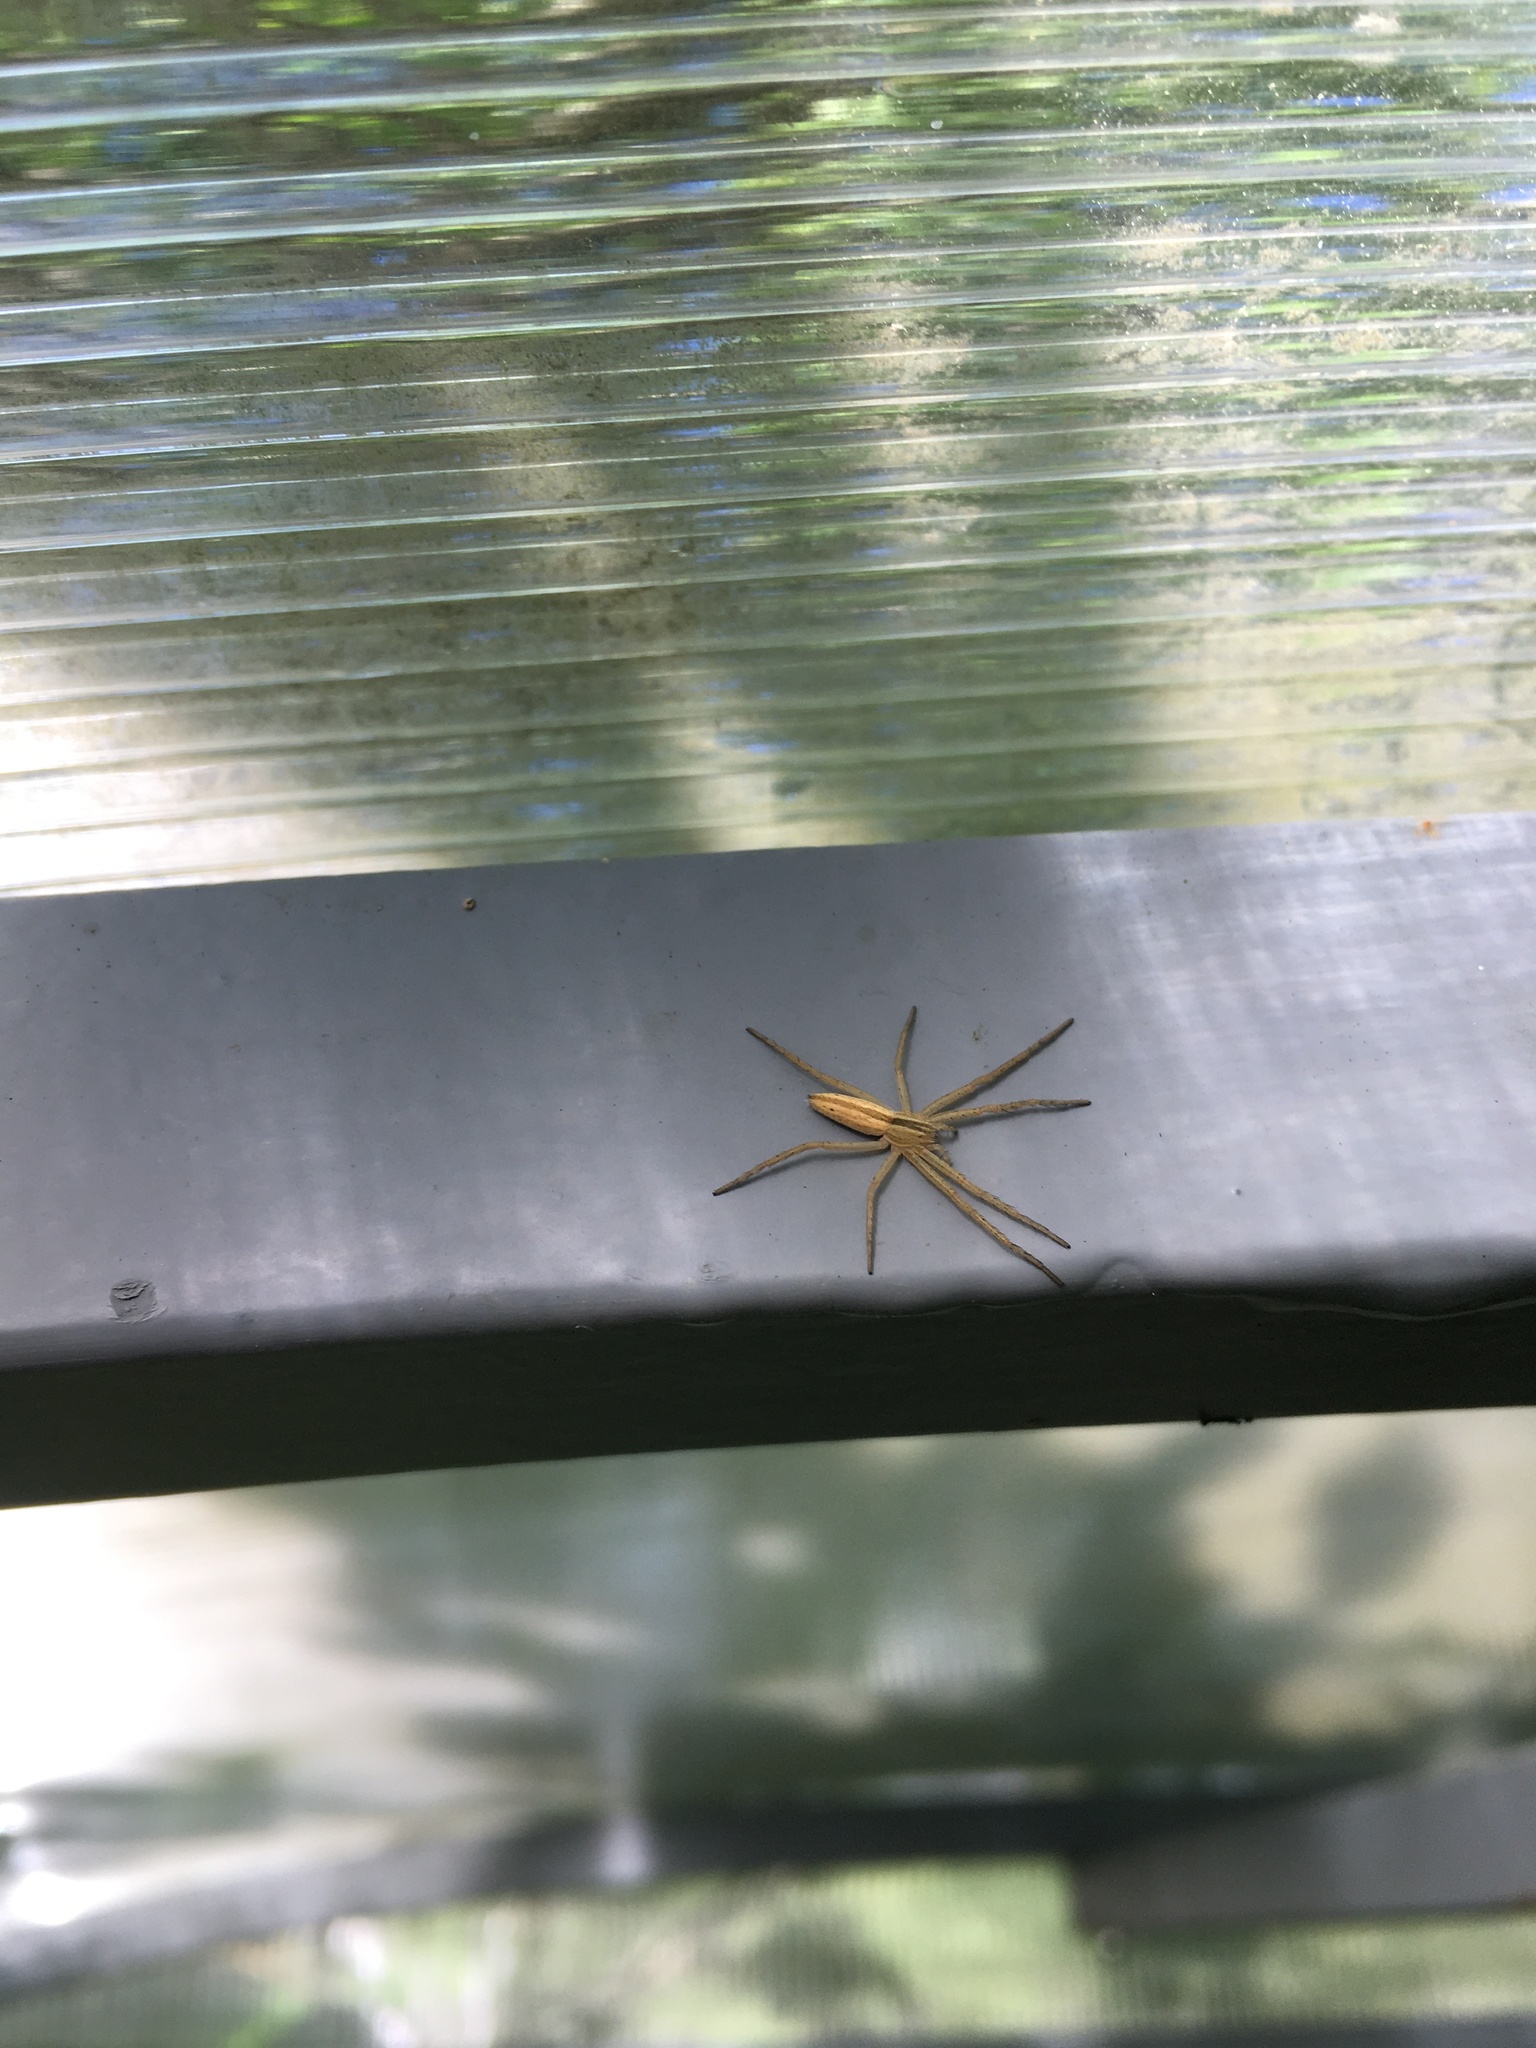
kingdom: Animalia
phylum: Arthropoda
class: Arachnida
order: Araneae
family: Philodromidae
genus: Tibellus
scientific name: Tibellus
